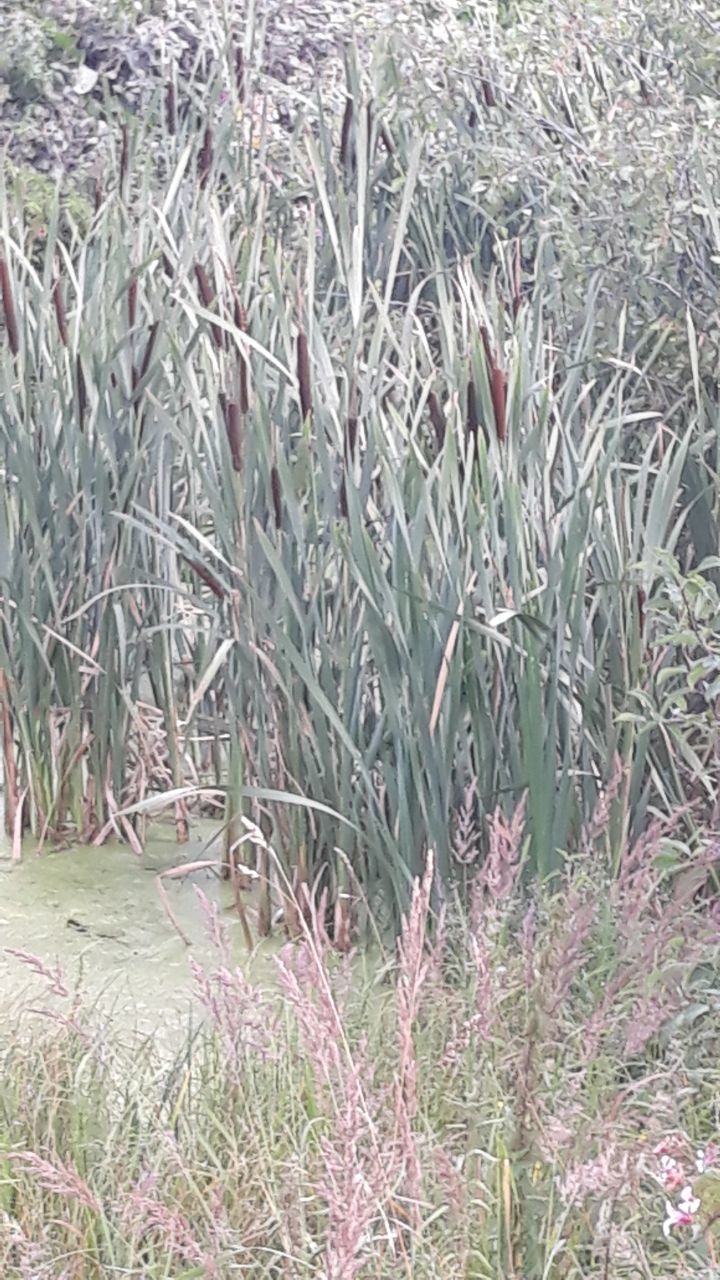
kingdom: Plantae
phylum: Tracheophyta
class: Liliopsida
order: Poales
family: Typhaceae
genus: Typha
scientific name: Typha latifolia
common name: Broadleaf cattail
